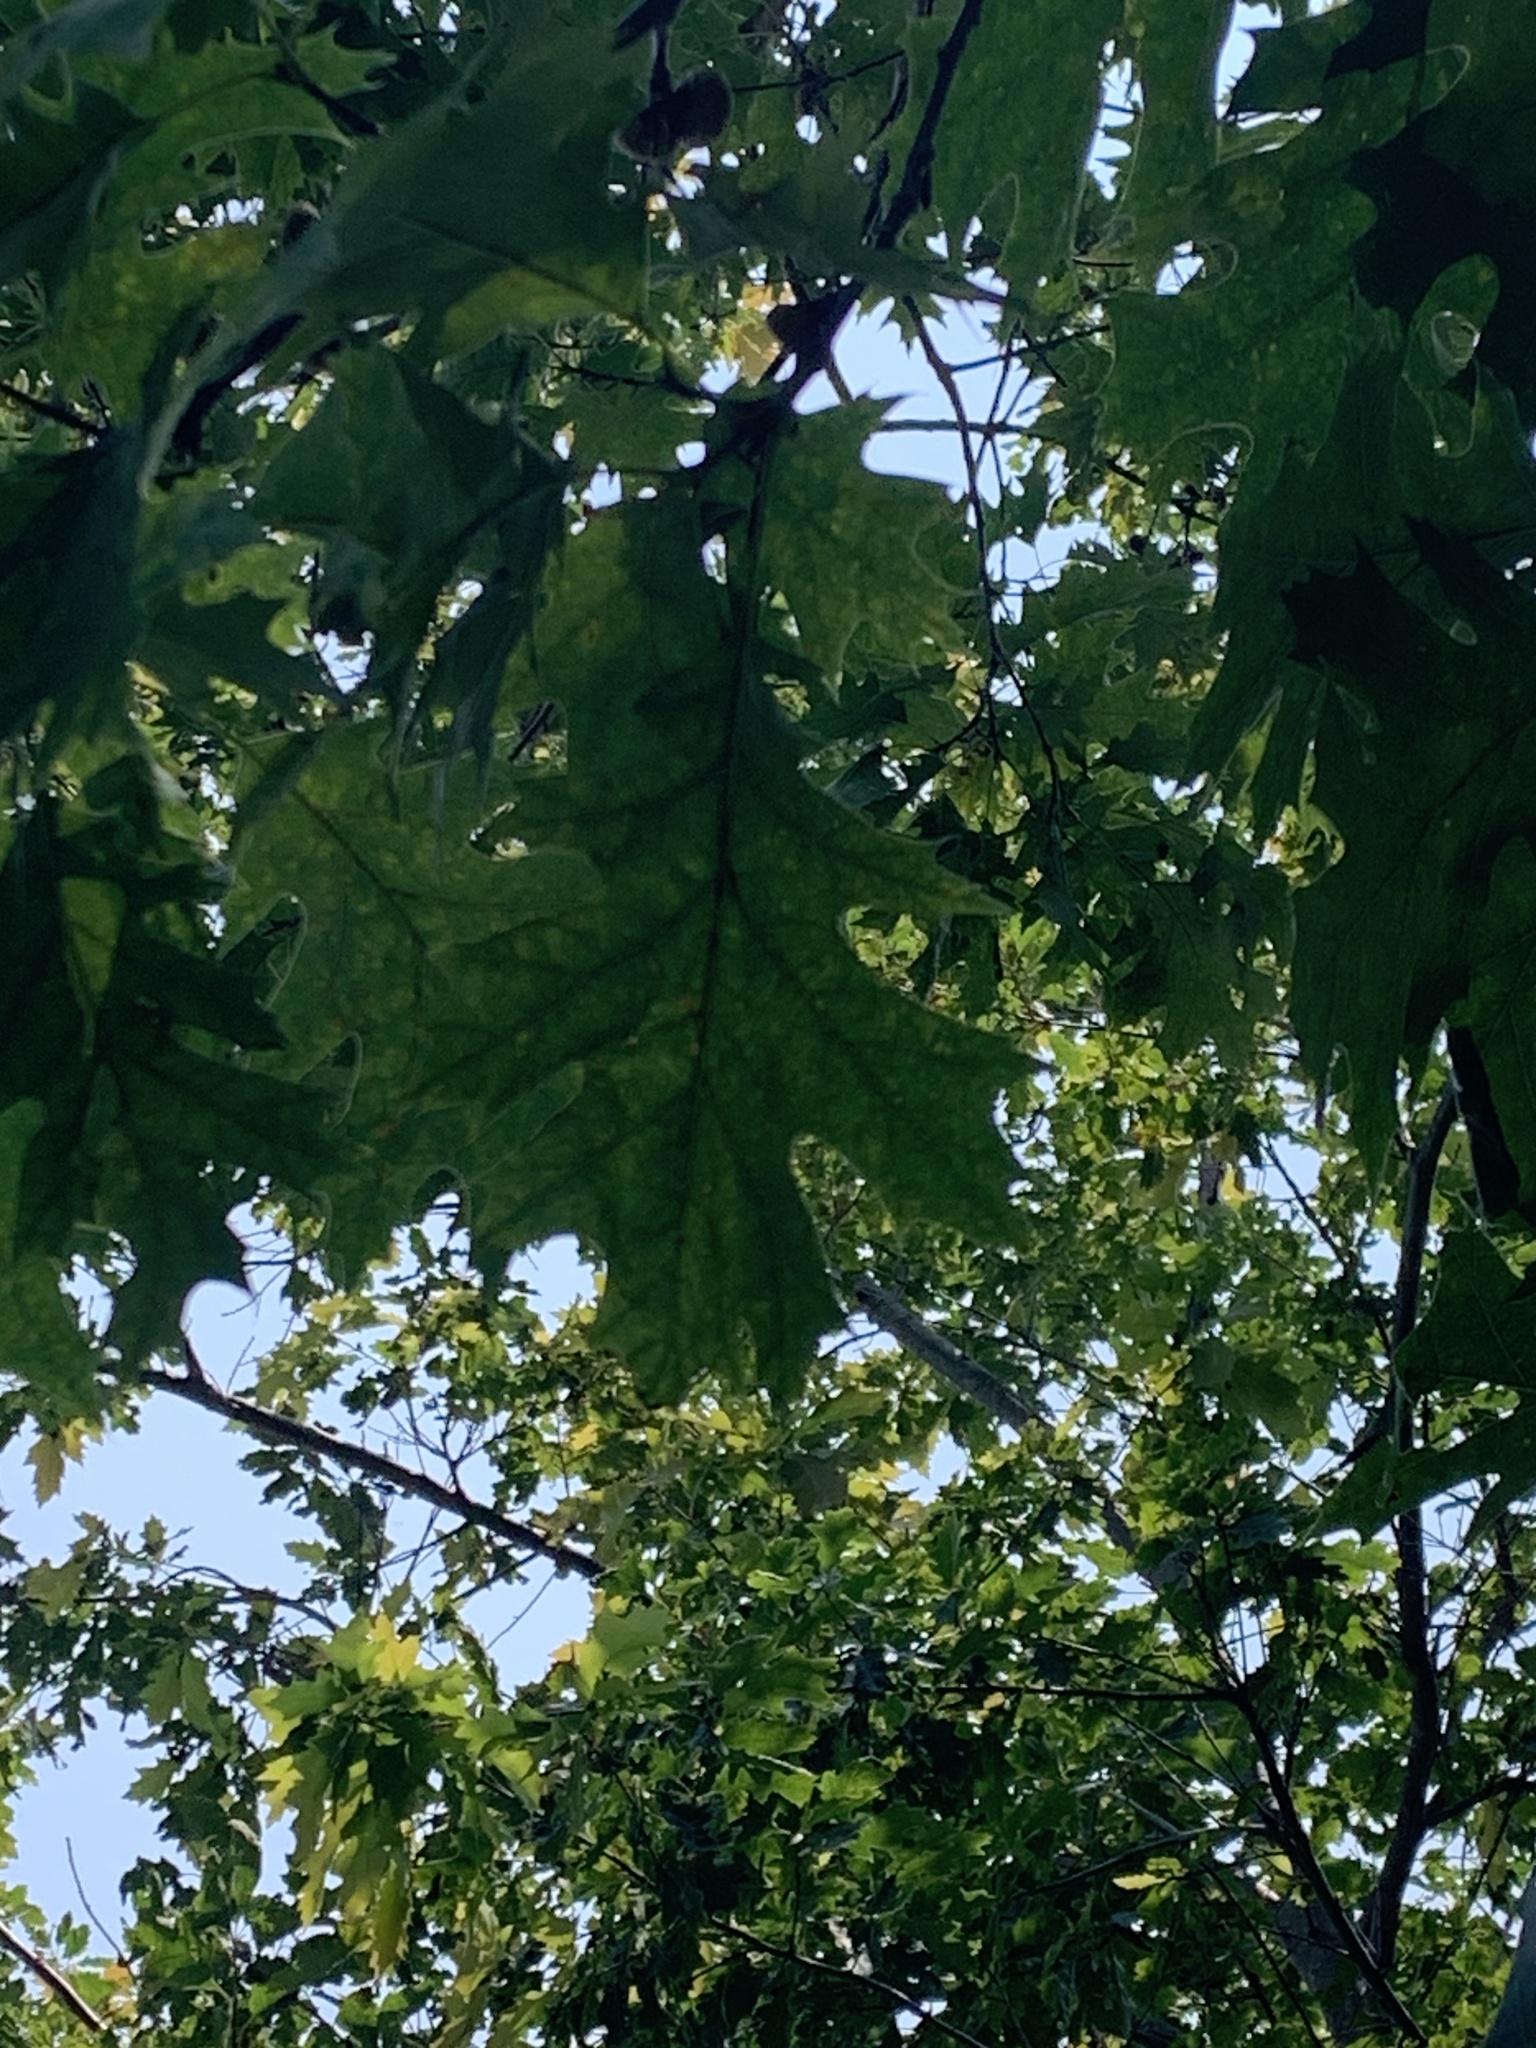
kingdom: Plantae
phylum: Tracheophyta
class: Magnoliopsida
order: Fagales
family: Fagaceae
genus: Quercus
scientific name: Quercus rubra
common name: Red oak
